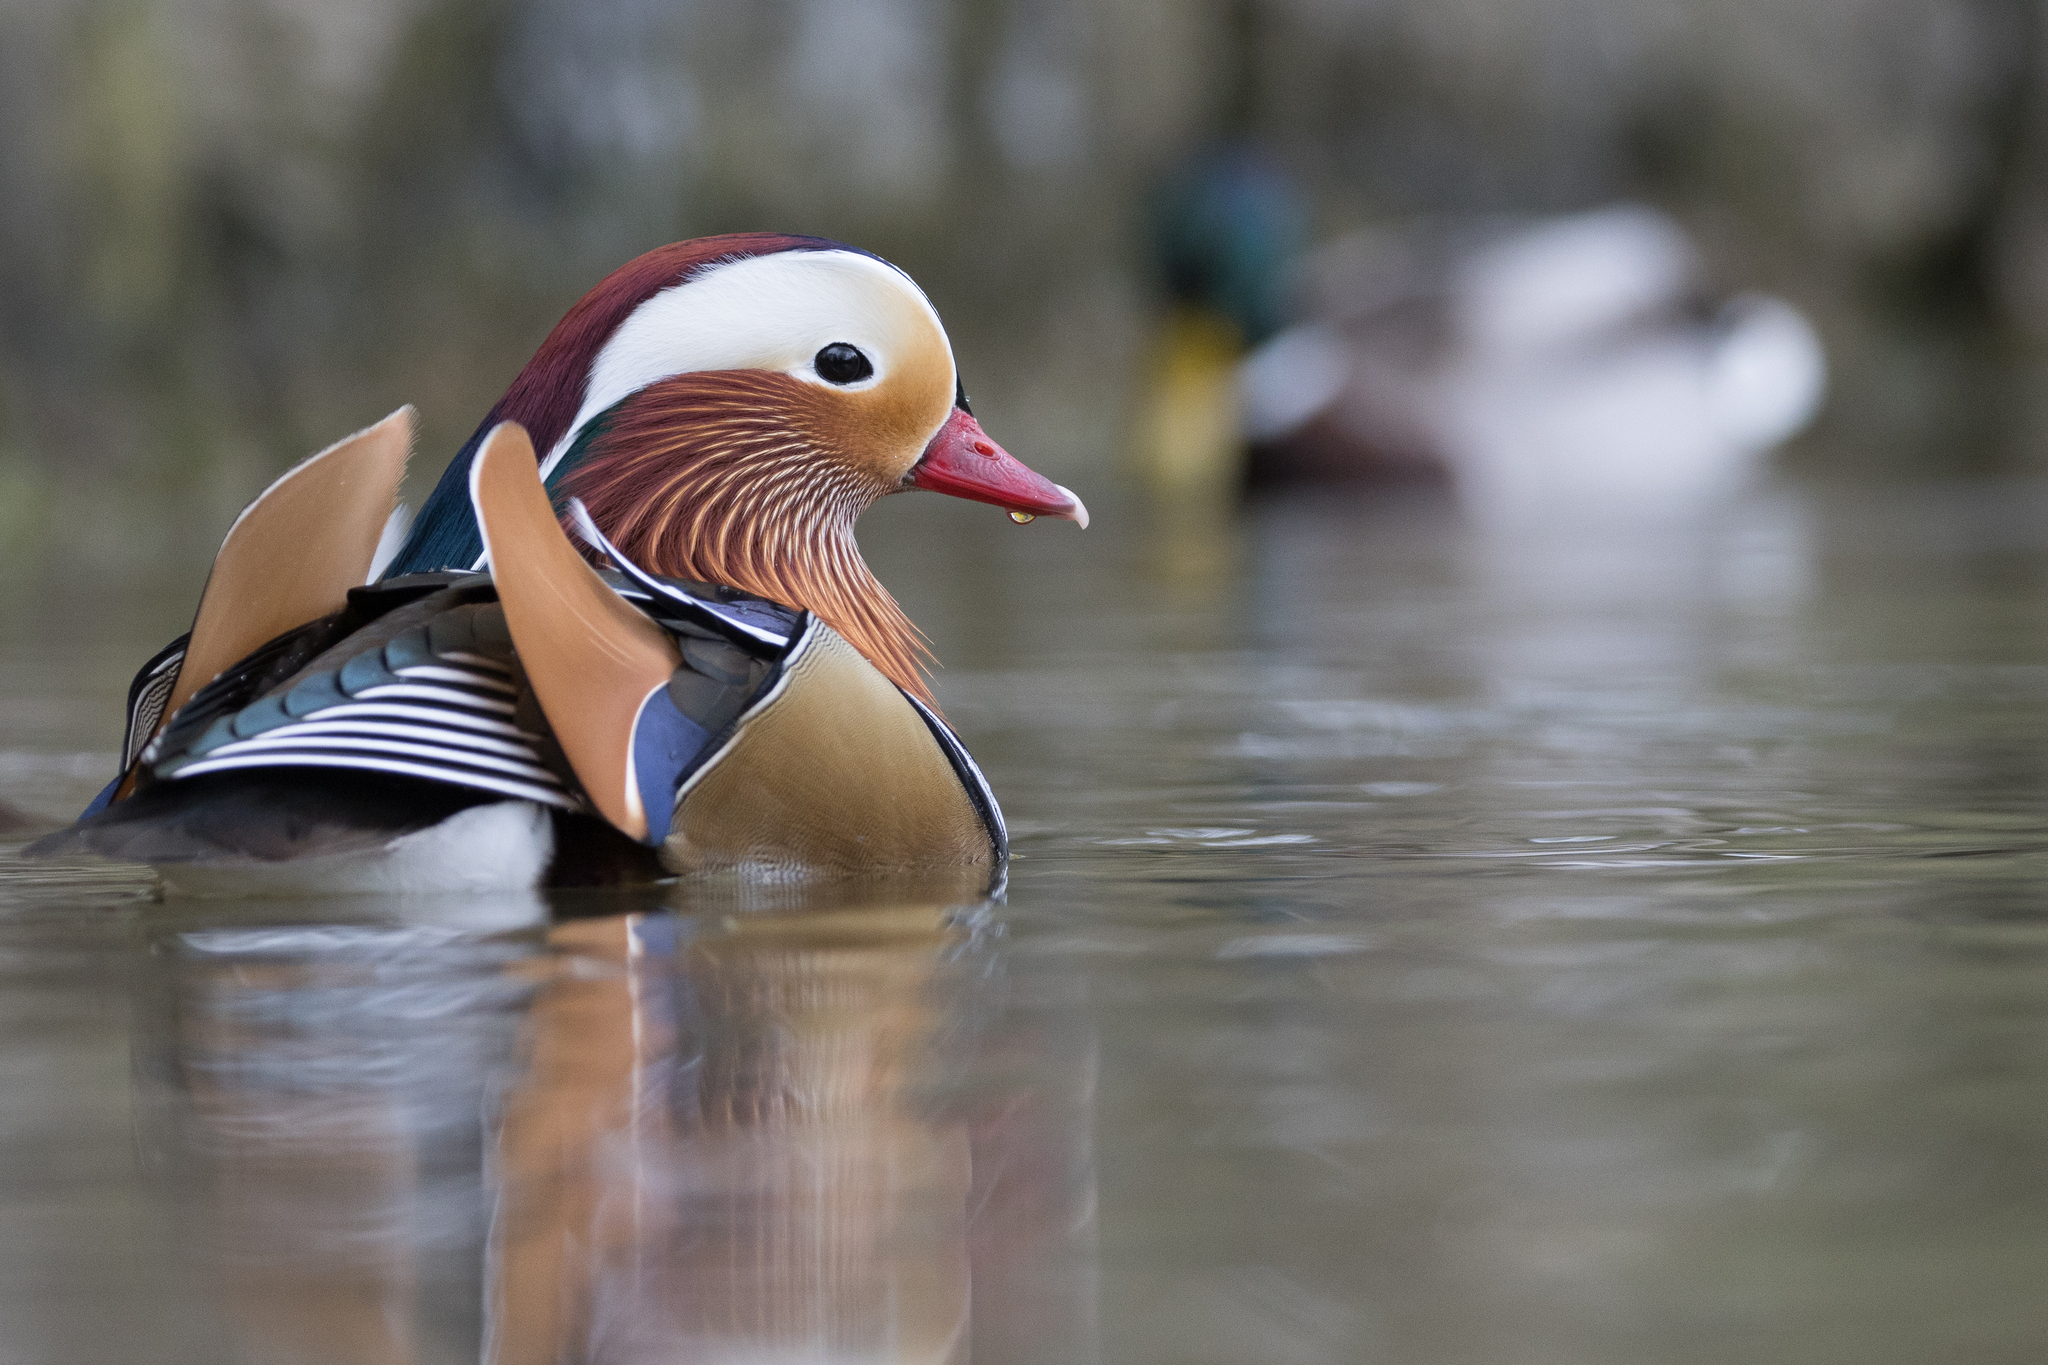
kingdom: Animalia
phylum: Chordata
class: Aves
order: Anseriformes
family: Anatidae
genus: Aix
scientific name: Aix galericulata
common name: Mandarin duck
